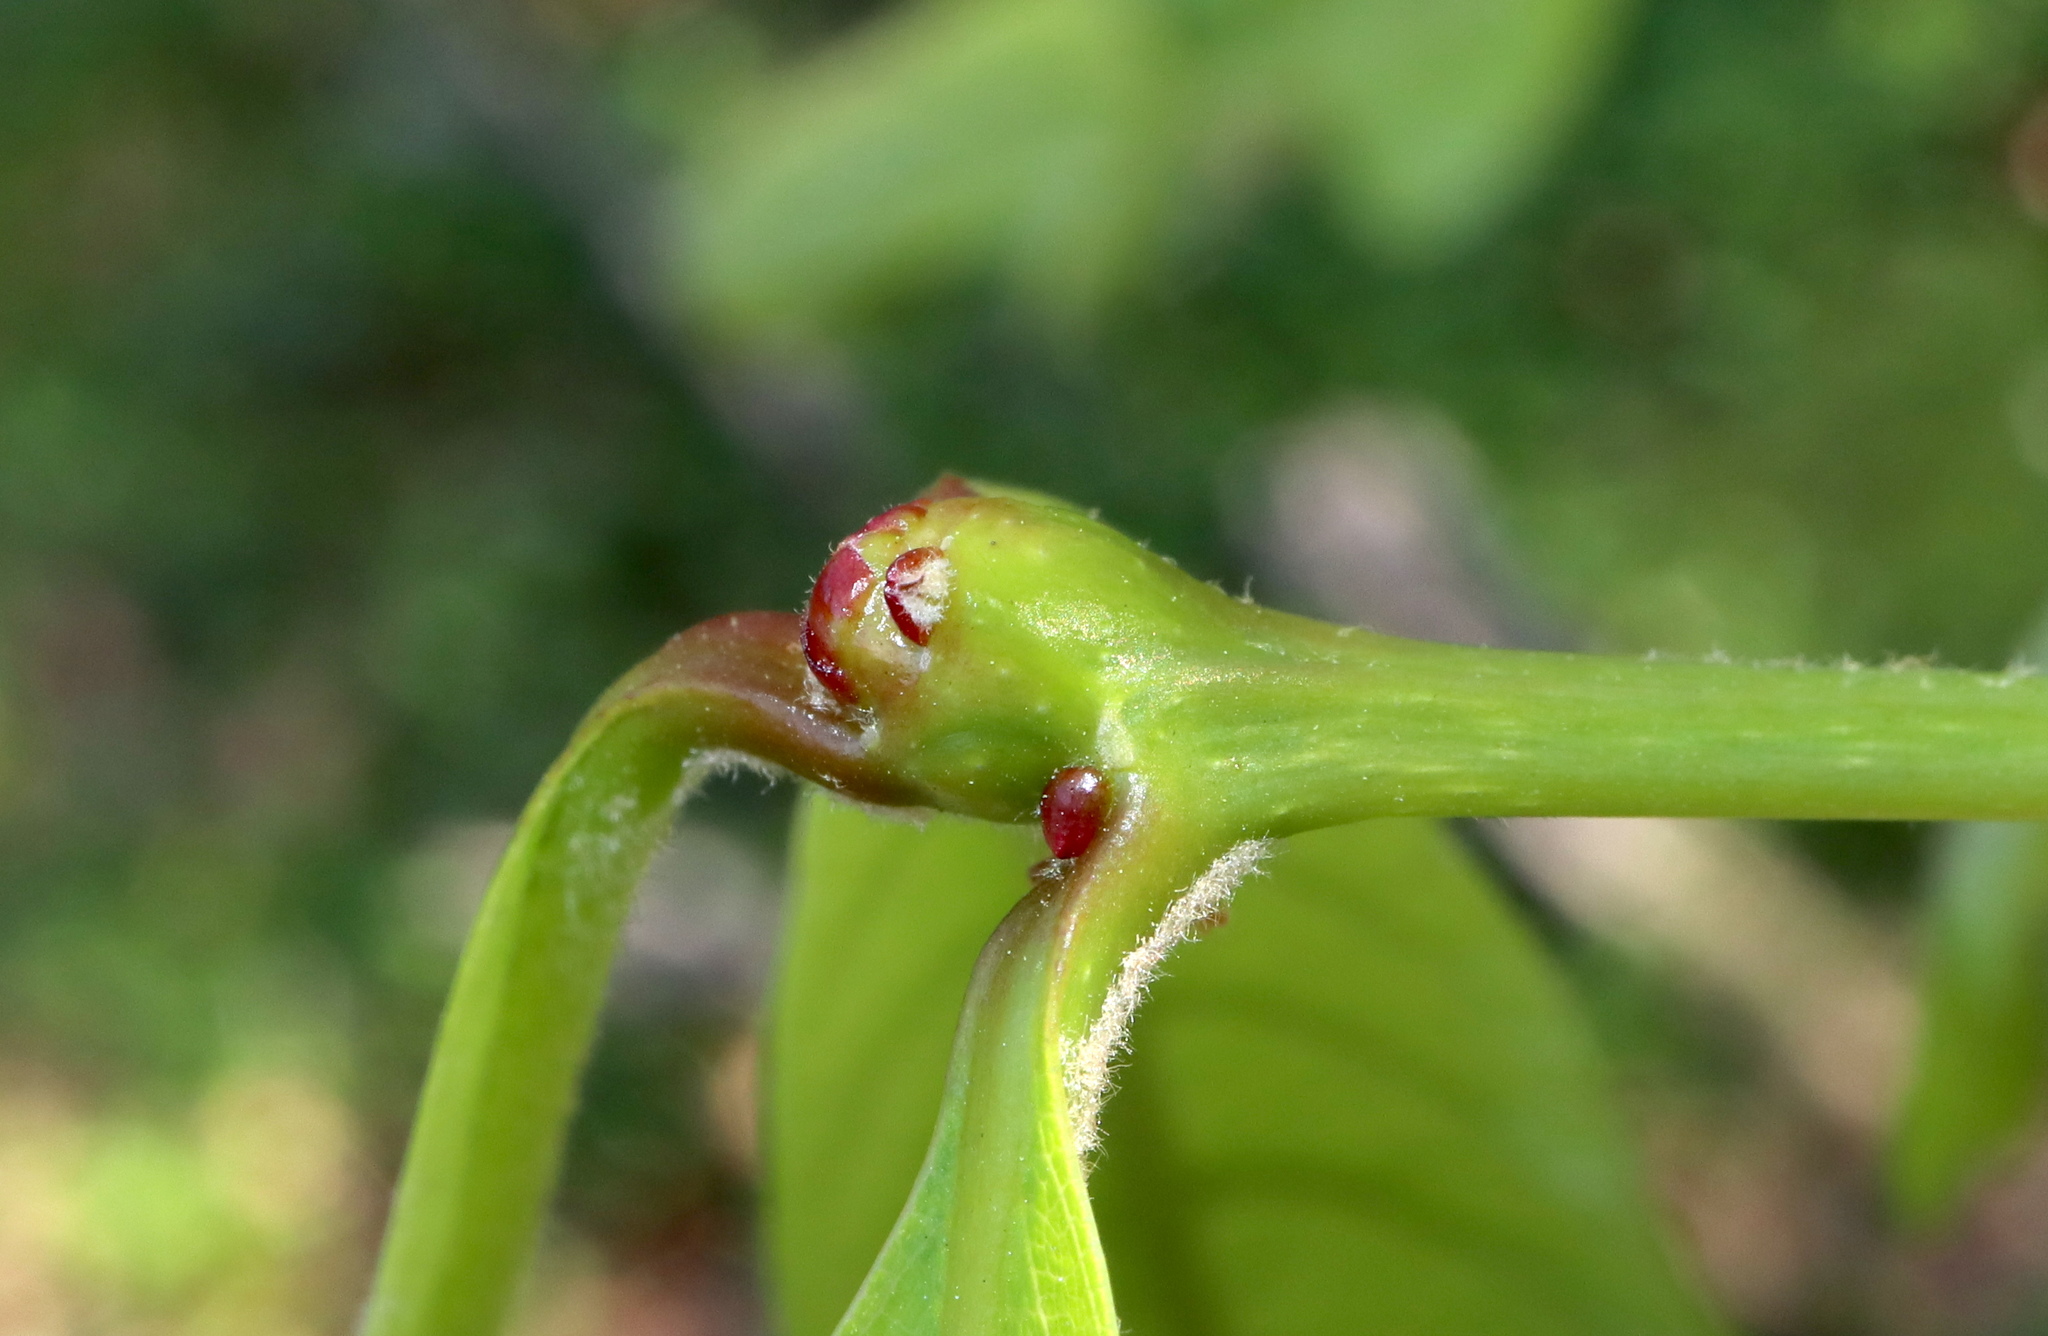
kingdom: Animalia
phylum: Arthropoda
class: Insecta
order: Hymenoptera
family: Cynipidae
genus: Callirhytis
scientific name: Callirhytis clavula
